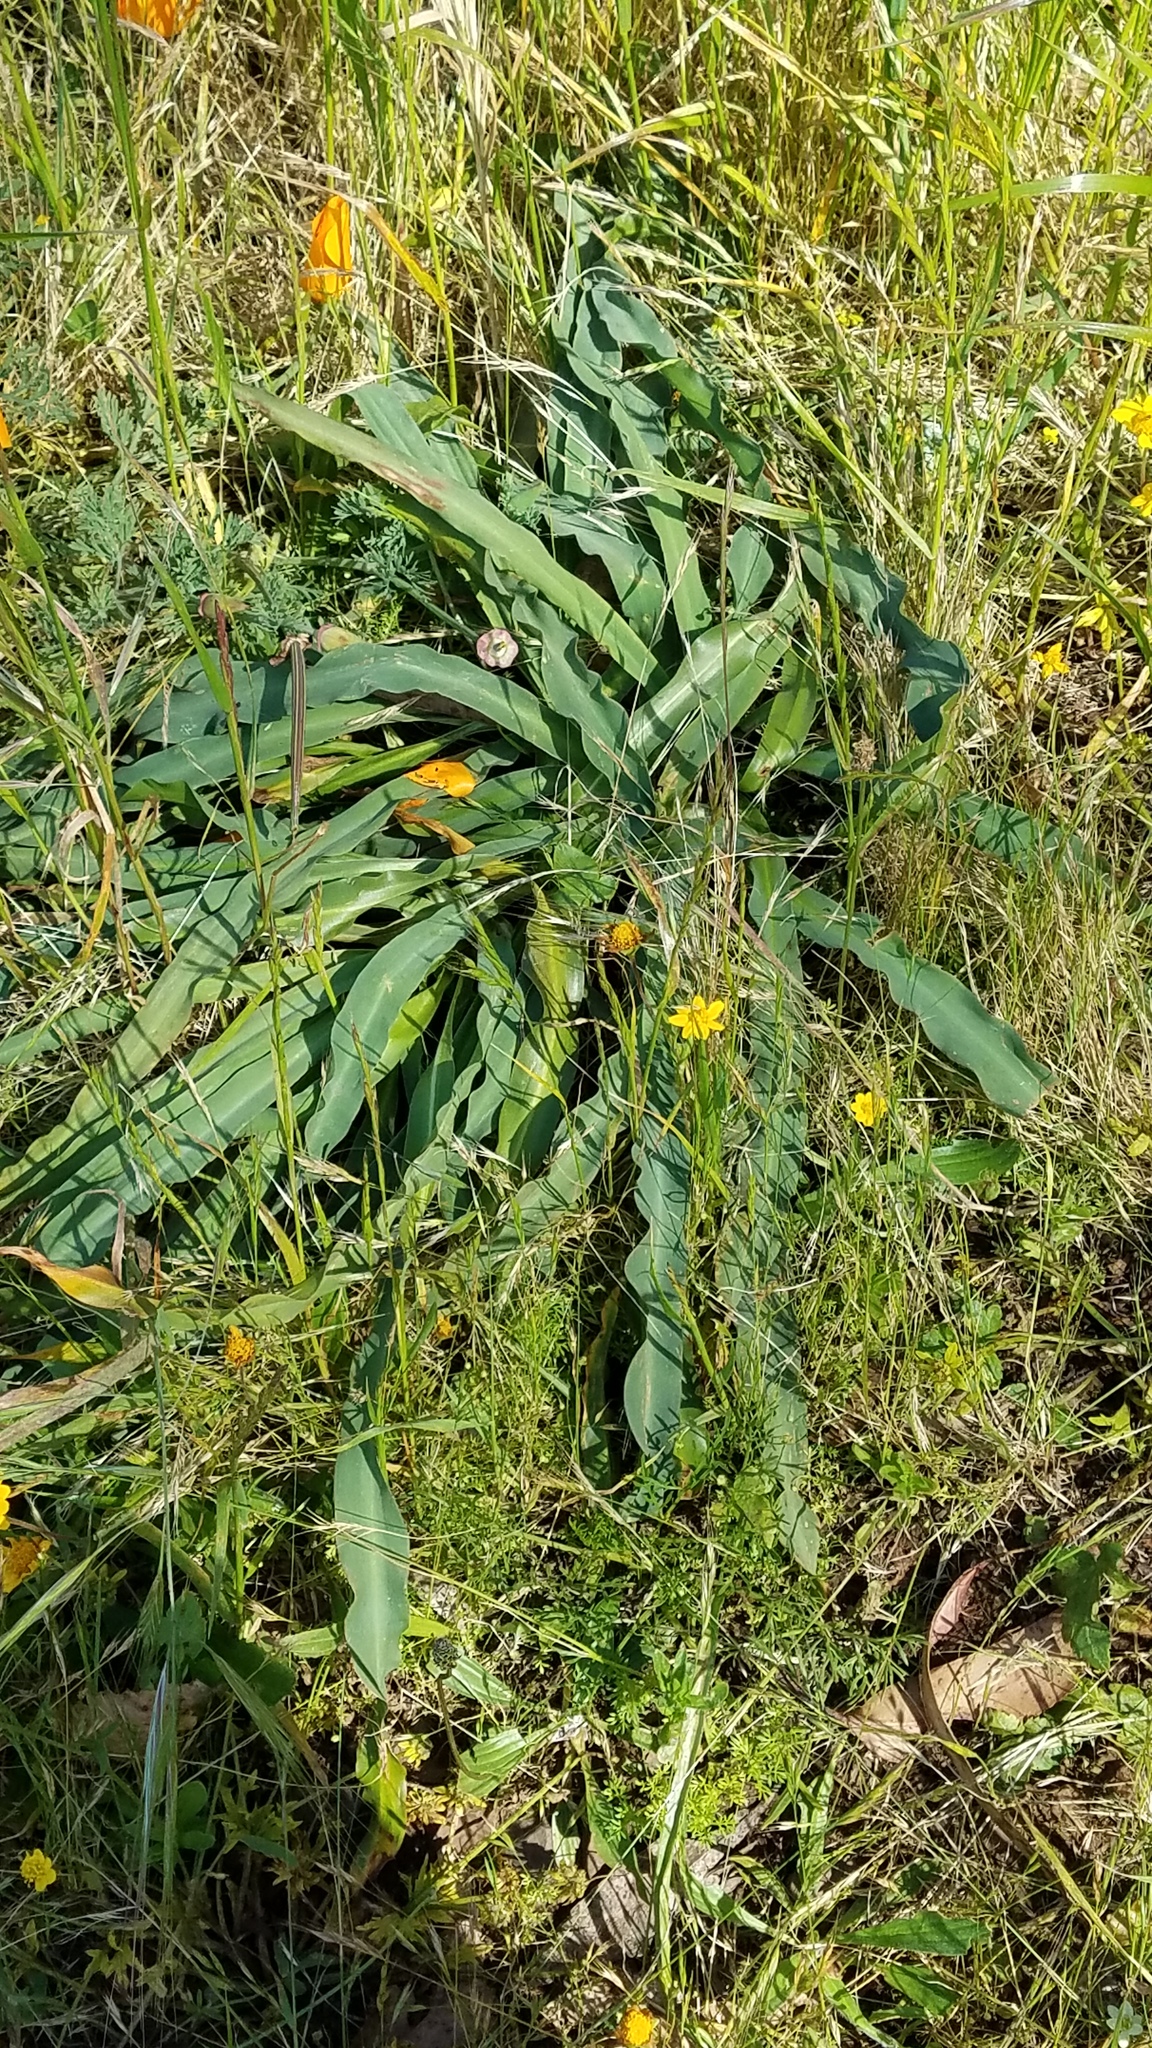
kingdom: Plantae
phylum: Tracheophyta
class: Liliopsida
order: Asparagales
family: Asparagaceae
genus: Chlorogalum
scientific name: Chlorogalum pomeridianum
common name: Amole
